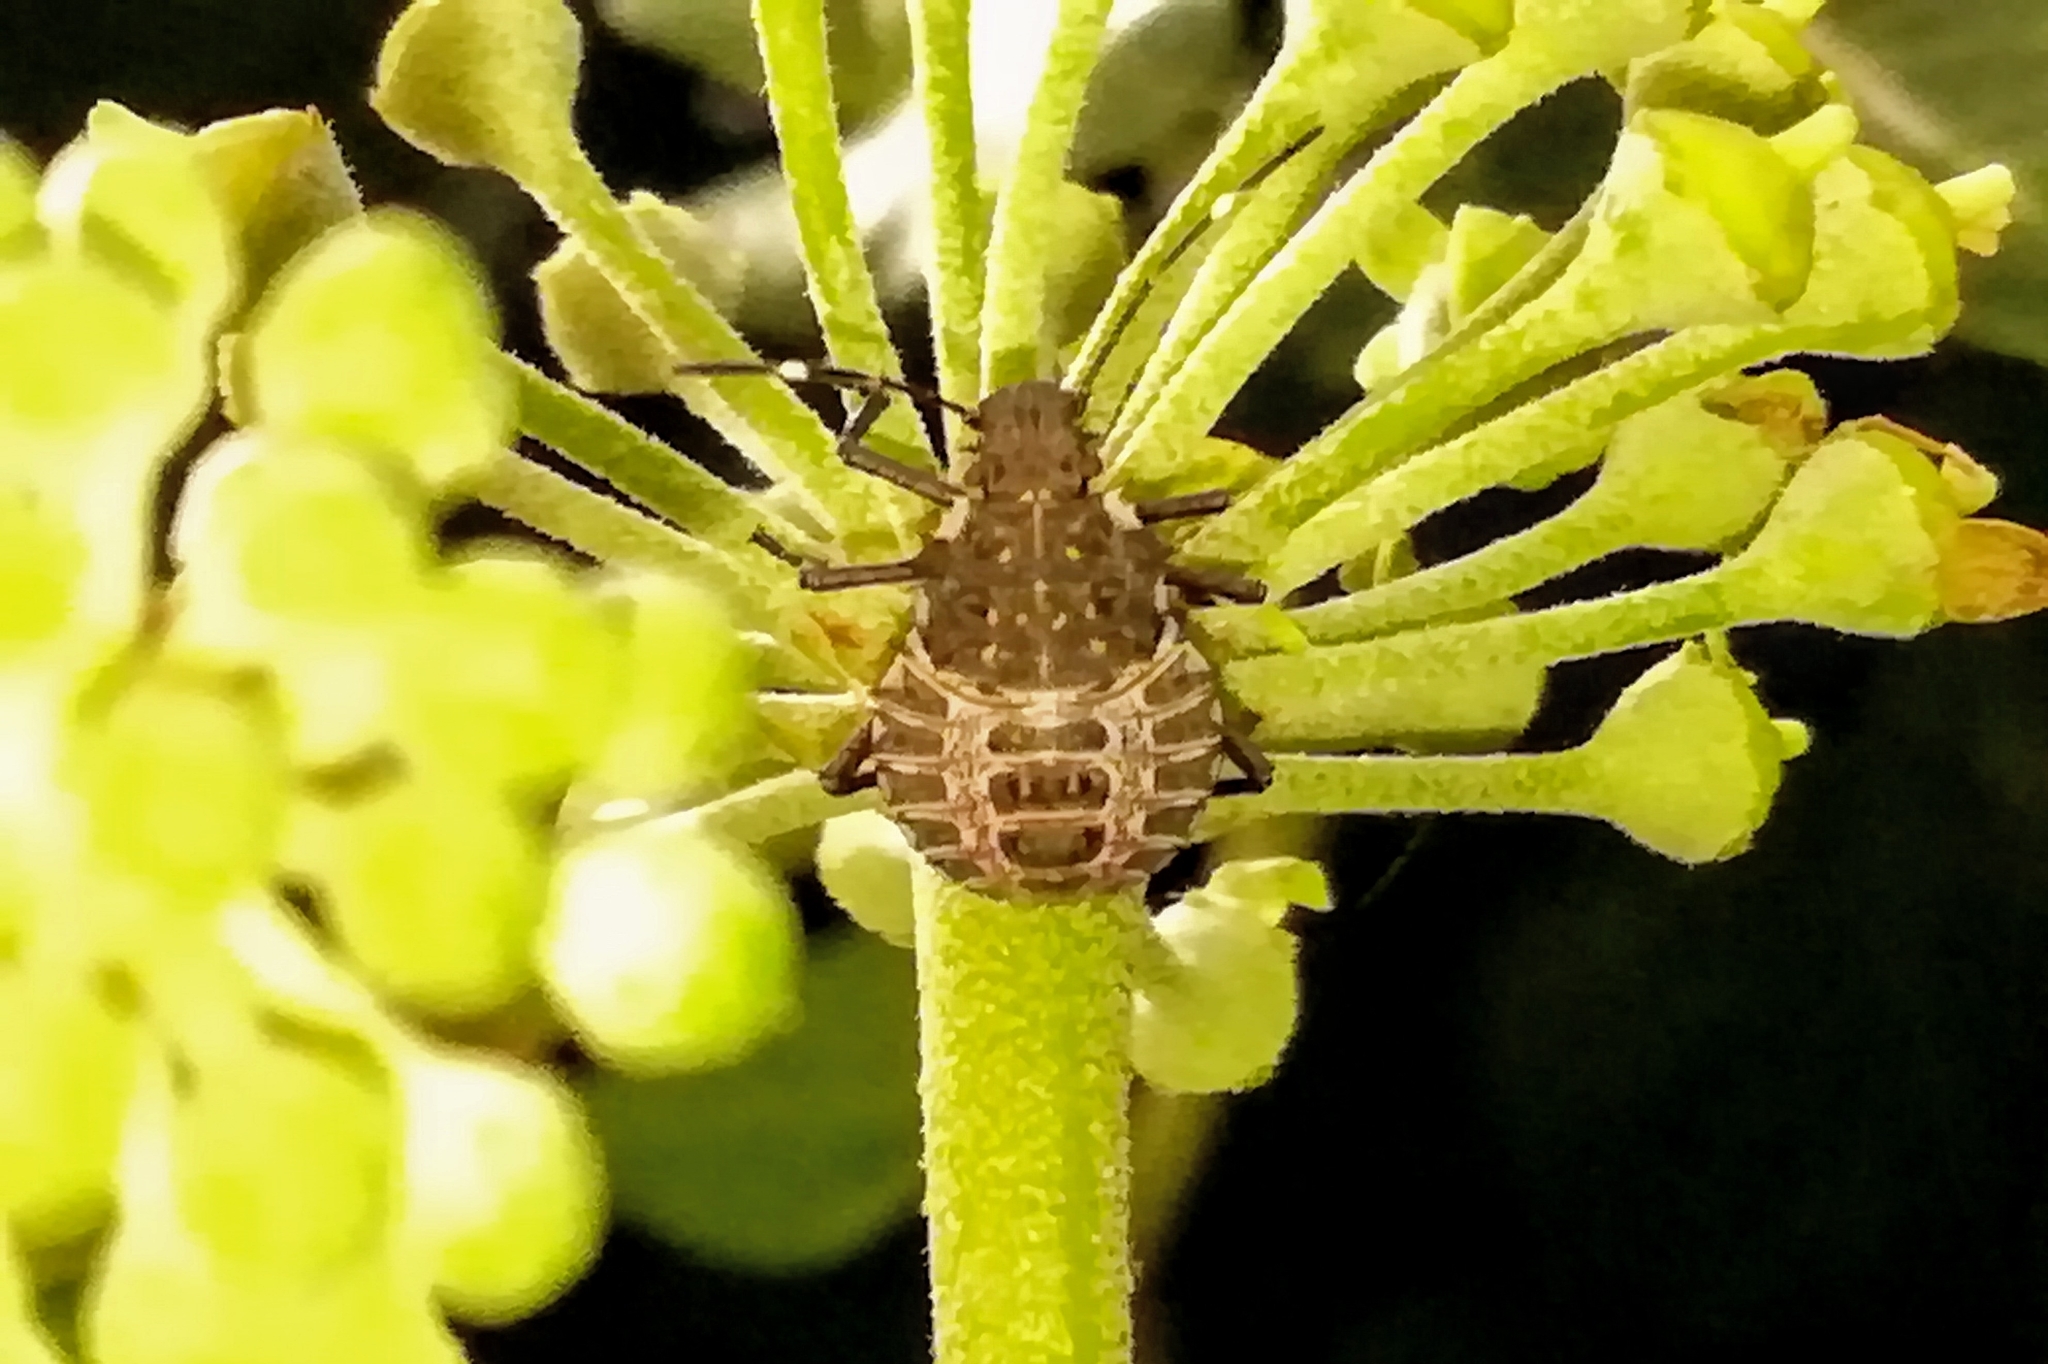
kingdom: Animalia
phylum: Arthropoda
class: Insecta
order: Hemiptera
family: Pentatomidae
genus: Halyomorpha
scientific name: Halyomorpha halys
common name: Brown marmorated stink bug
